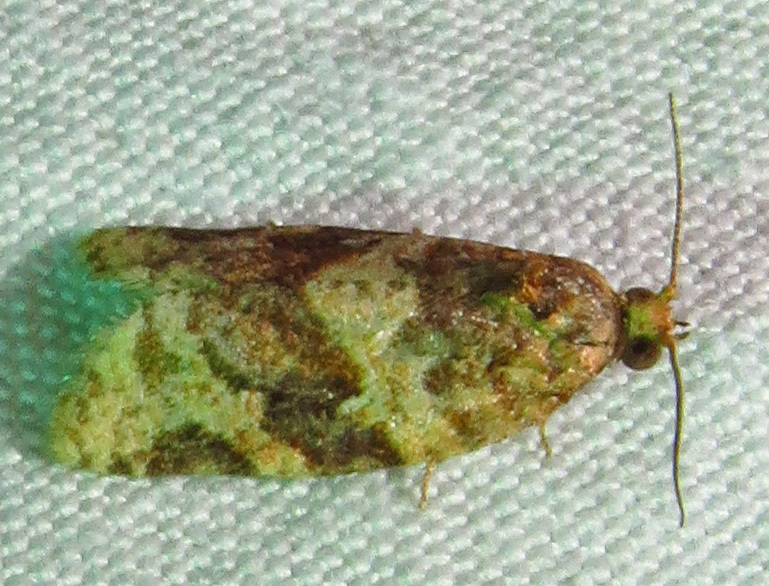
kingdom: Animalia
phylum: Arthropoda
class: Insecta
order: Lepidoptera
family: Tortricidae
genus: Argyrotaenia
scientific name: Argyrotaenia velutinana
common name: Red-banded leafroller moth
